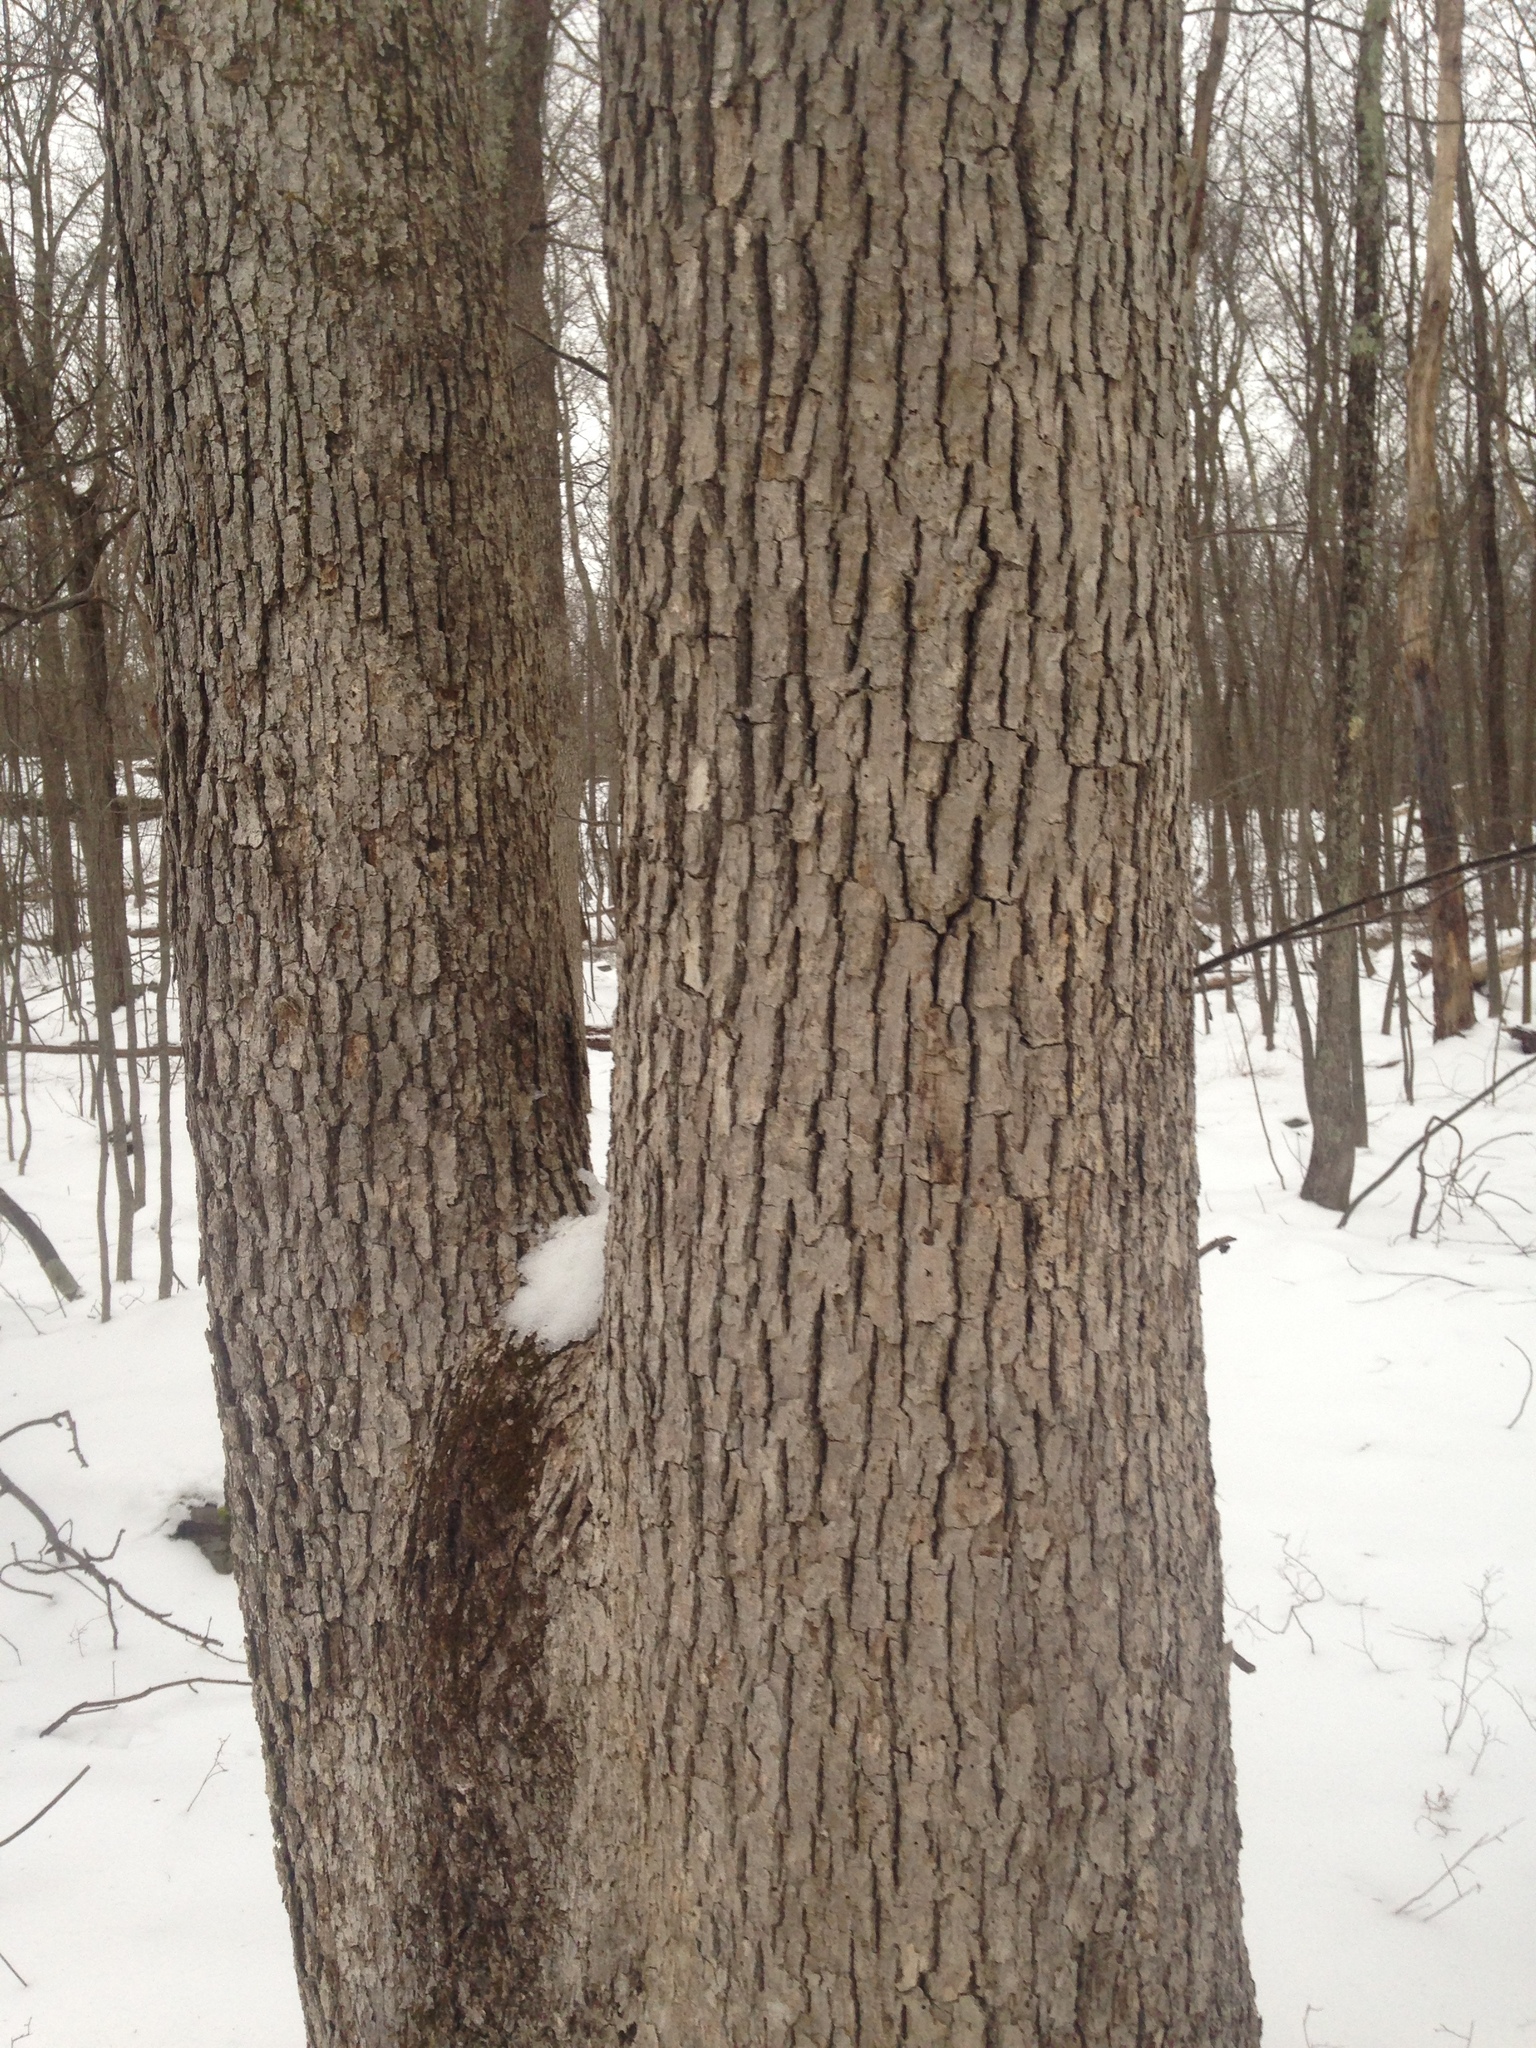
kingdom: Plantae
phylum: Tracheophyta
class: Magnoliopsida
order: Fagales
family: Fagaceae
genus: Quercus
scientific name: Quercus alba
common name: White oak
